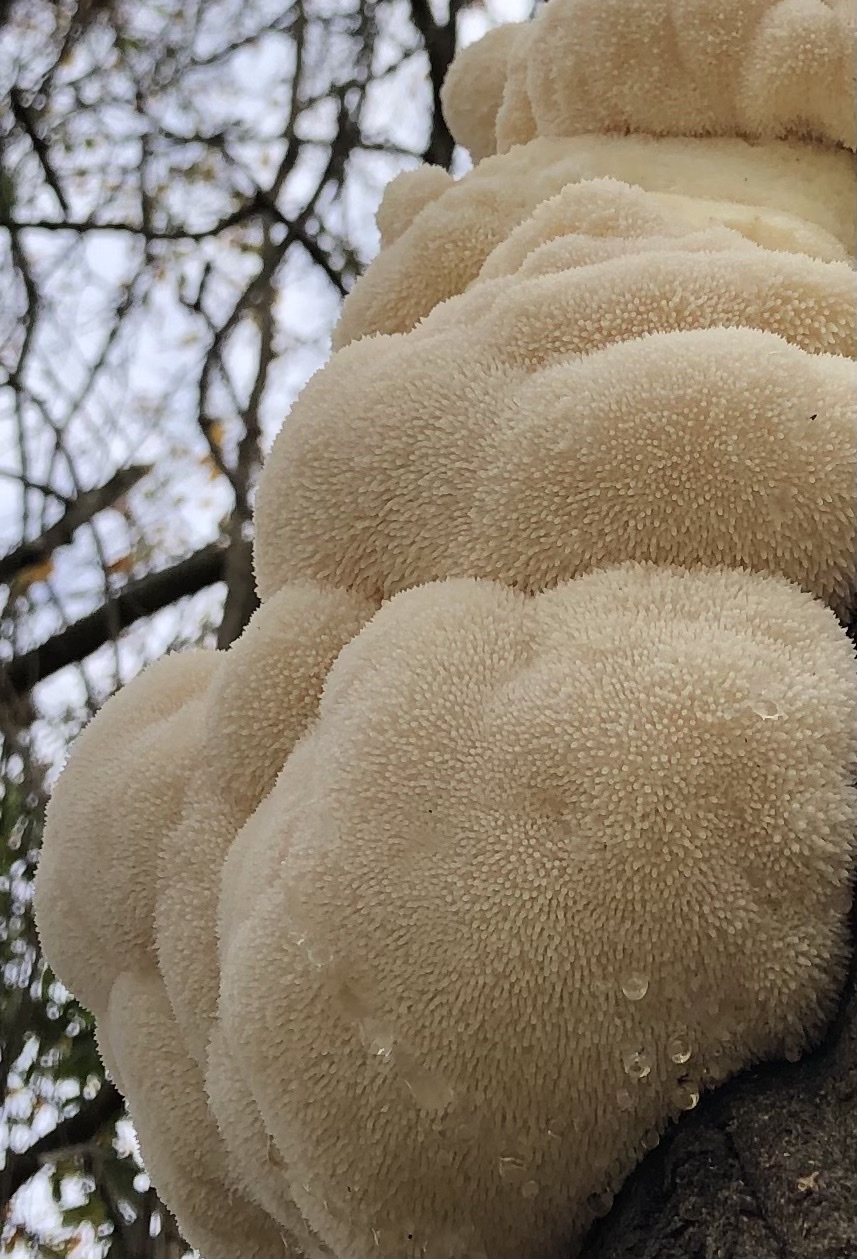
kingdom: Fungi
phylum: Basidiomycota
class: Agaricomycetes
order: Russulales
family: Hericiaceae
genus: Hericium
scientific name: Hericium erinaceus
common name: Bearded tooth
